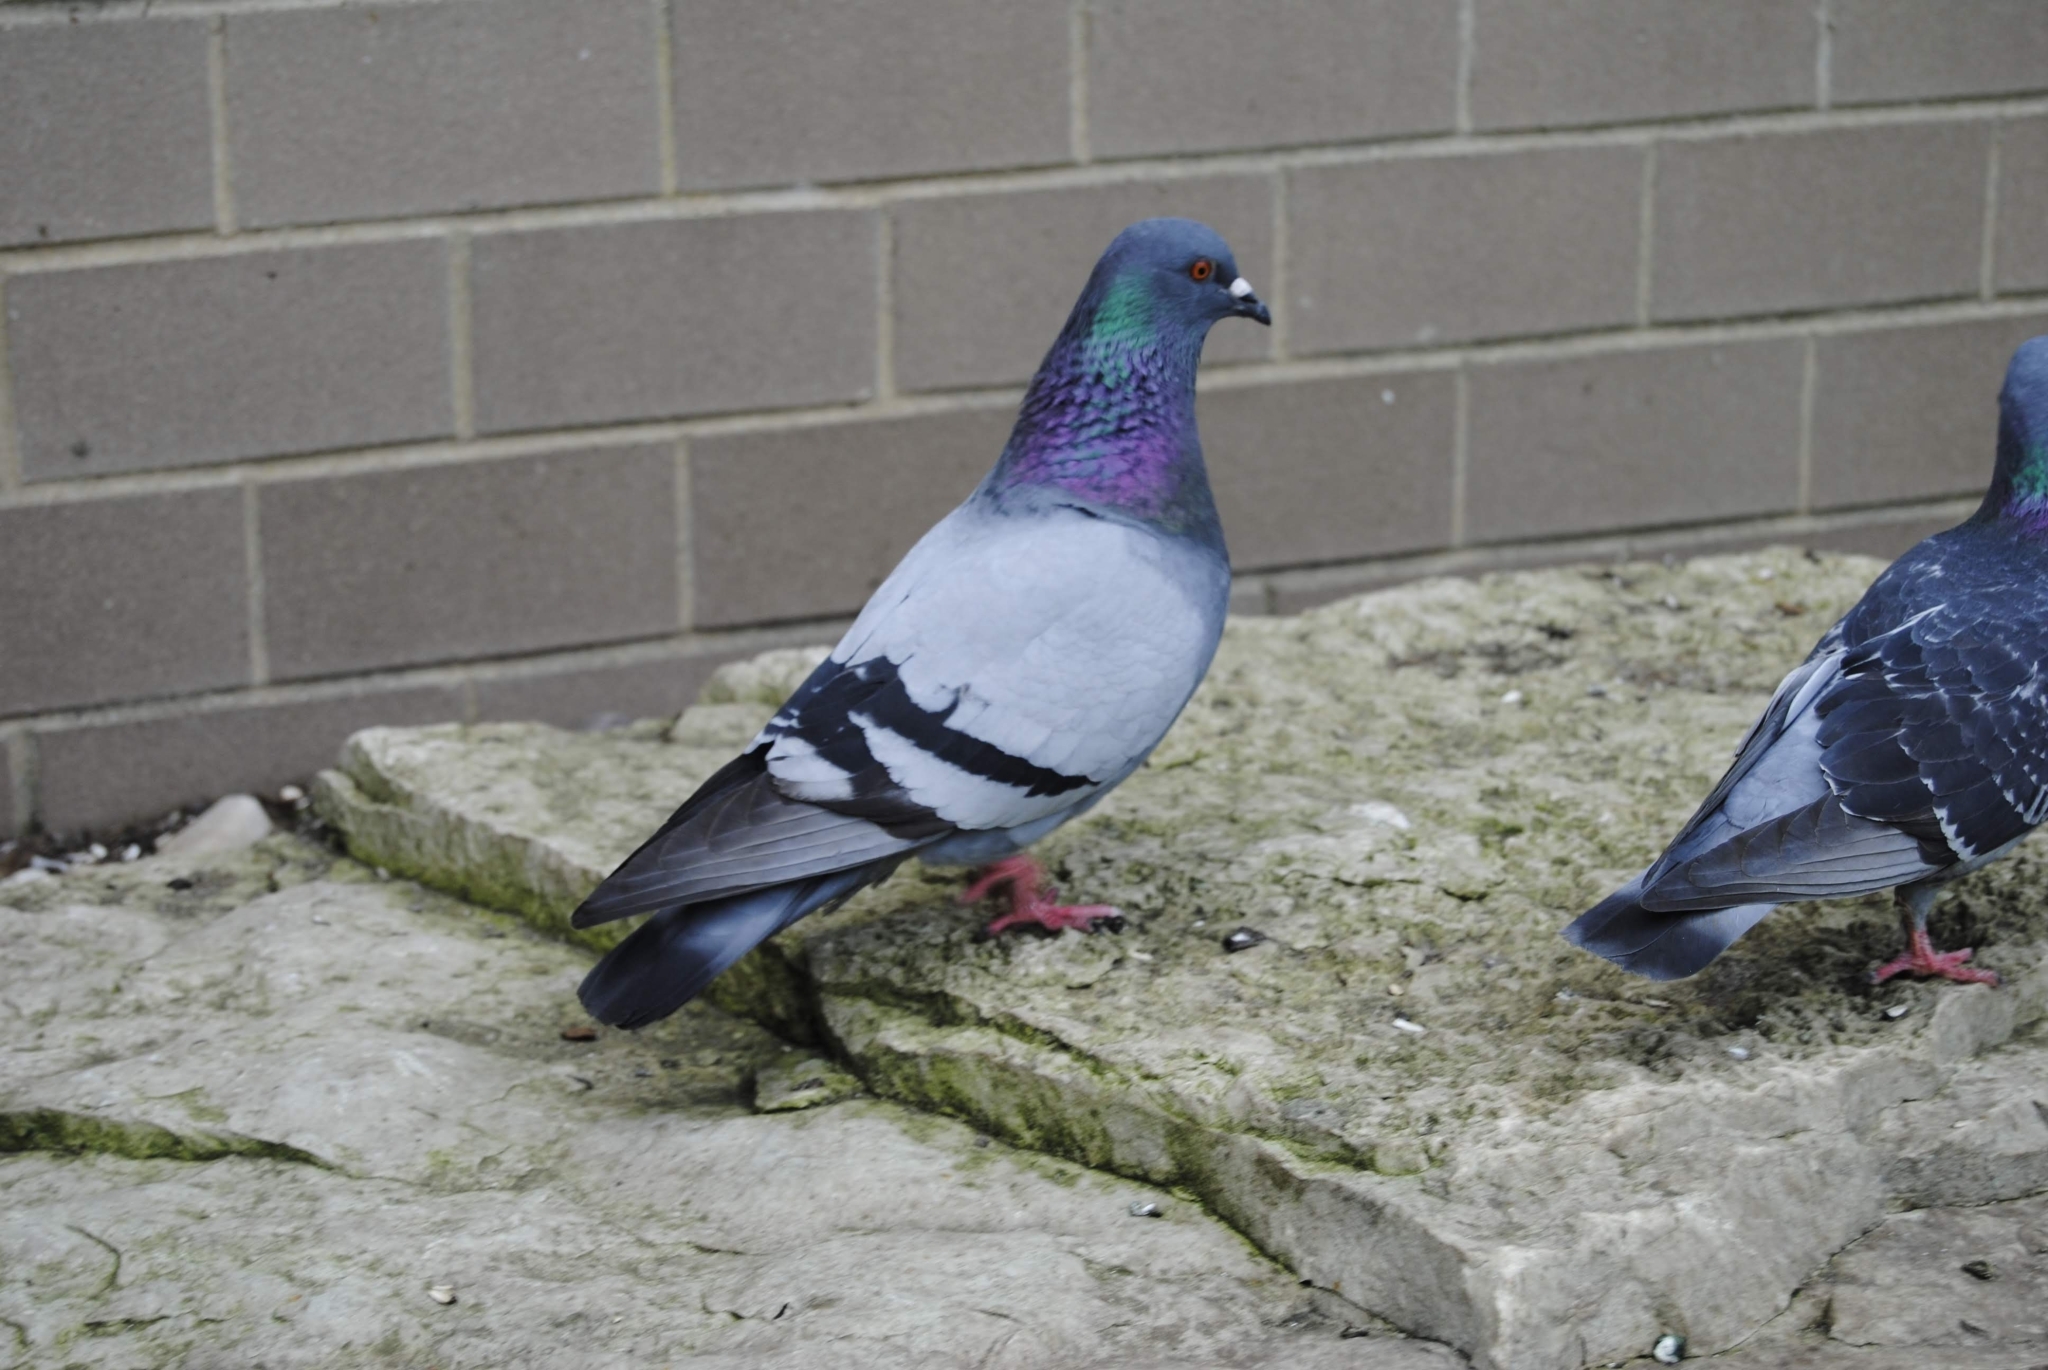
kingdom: Animalia
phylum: Chordata
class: Aves
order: Columbiformes
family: Columbidae
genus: Columba
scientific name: Columba livia
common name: Rock pigeon
